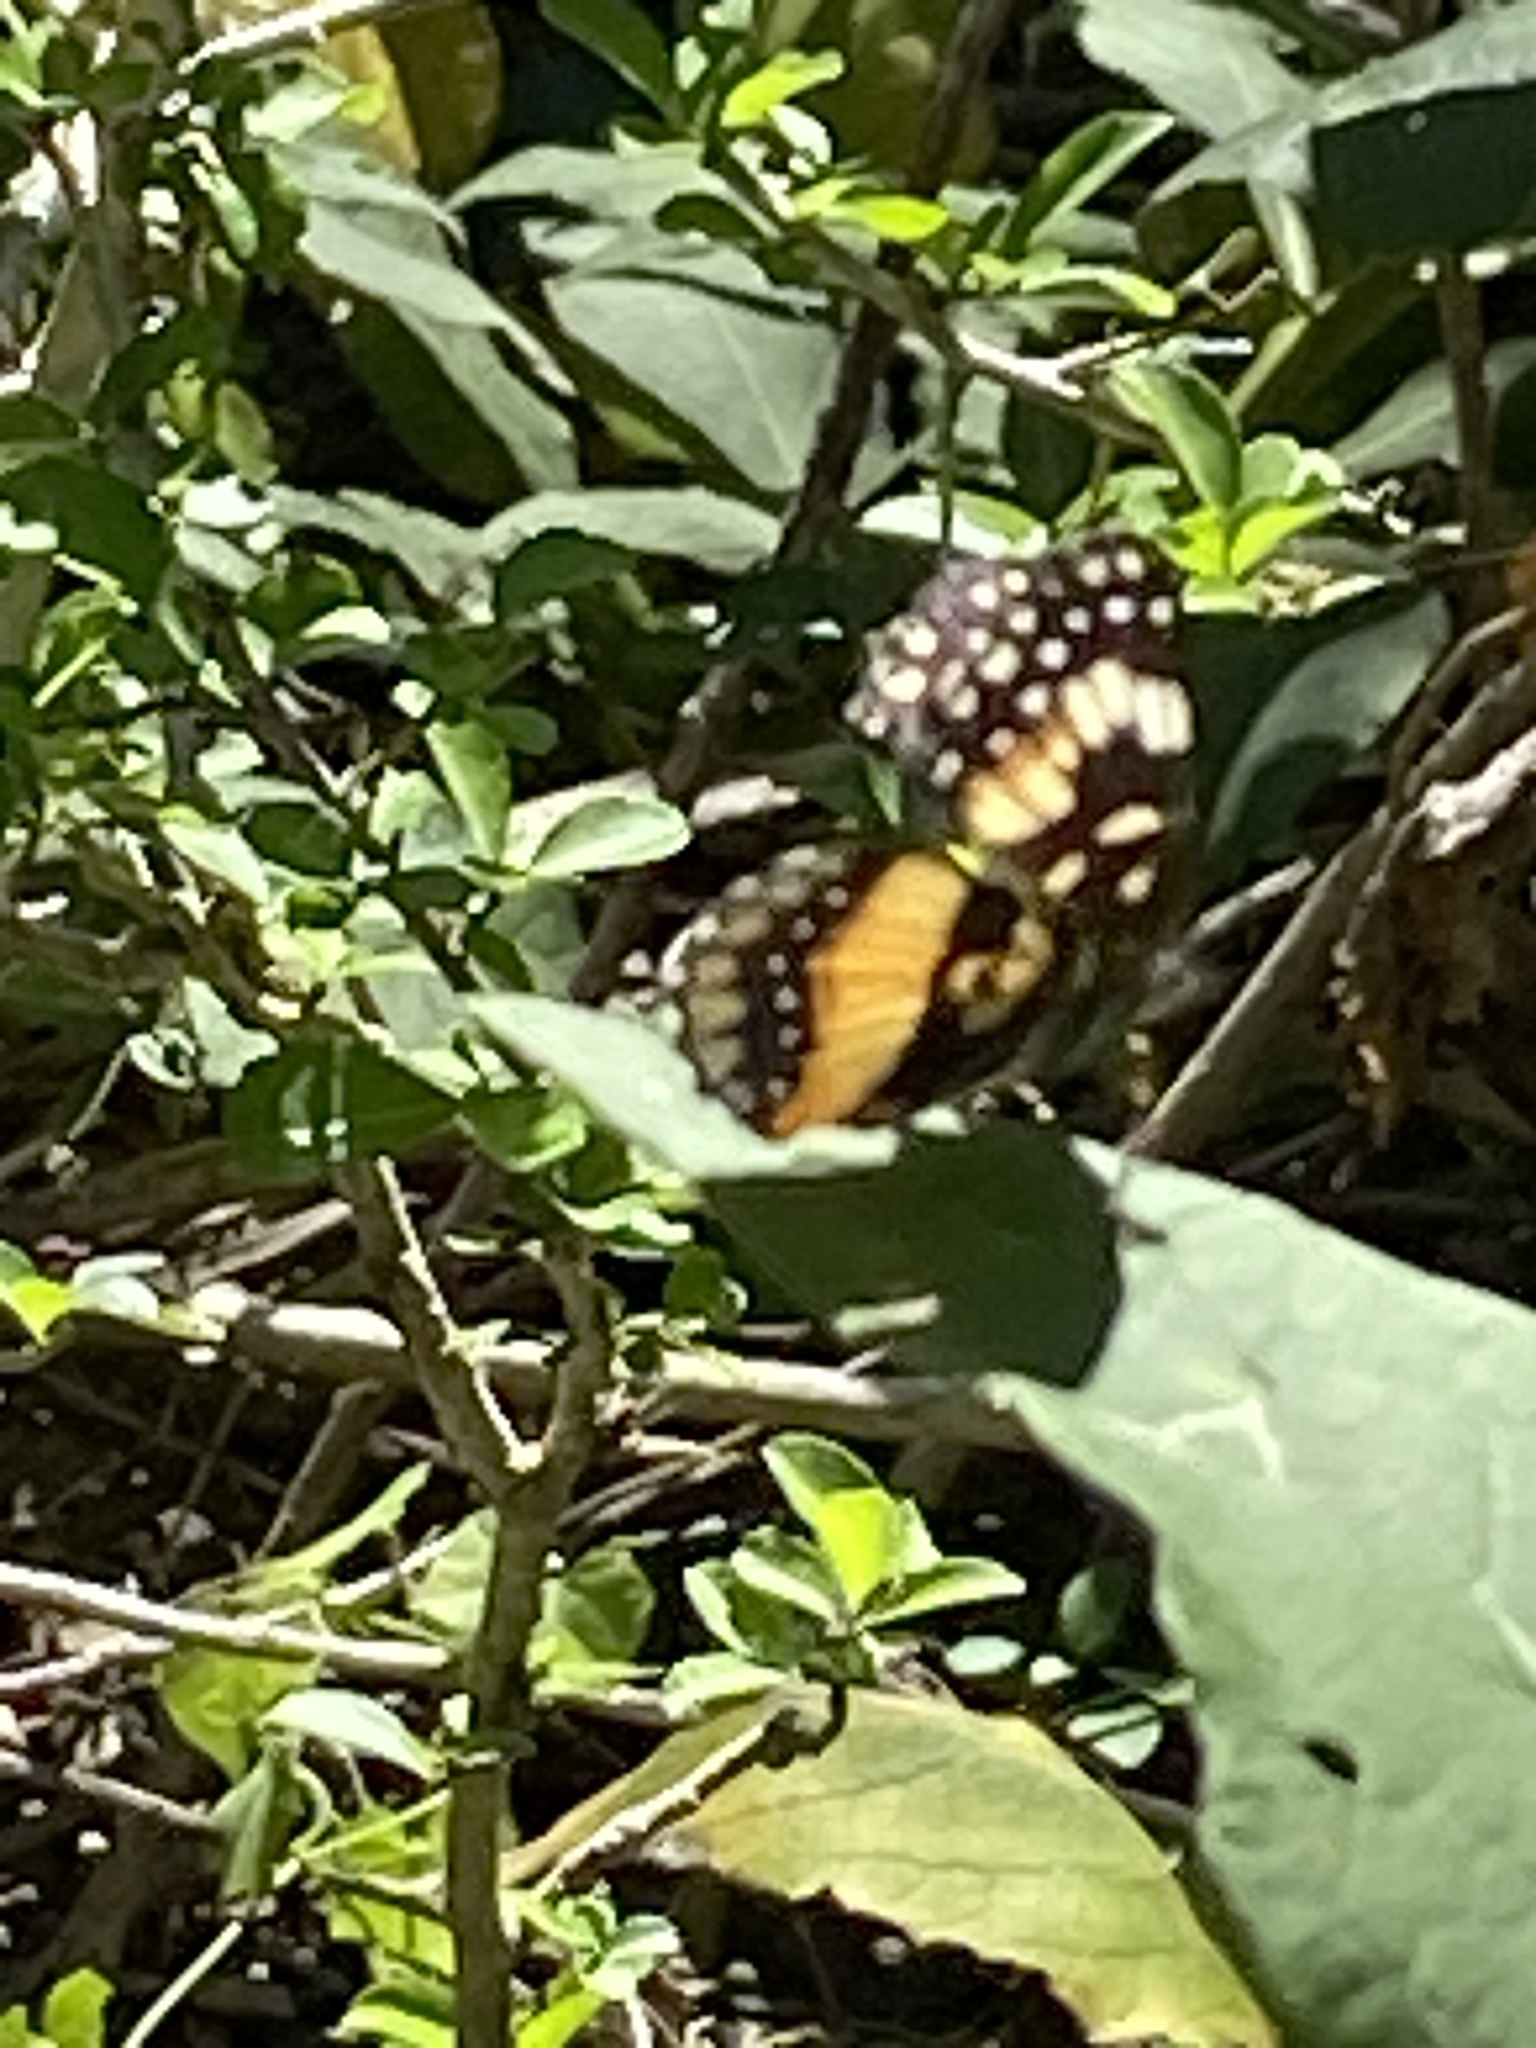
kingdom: Animalia
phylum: Arthropoda
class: Insecta
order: Lepidoptera
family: Nymphalidae
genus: Chlosyne
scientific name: Chlosyne lacinia
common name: Bordered patch
